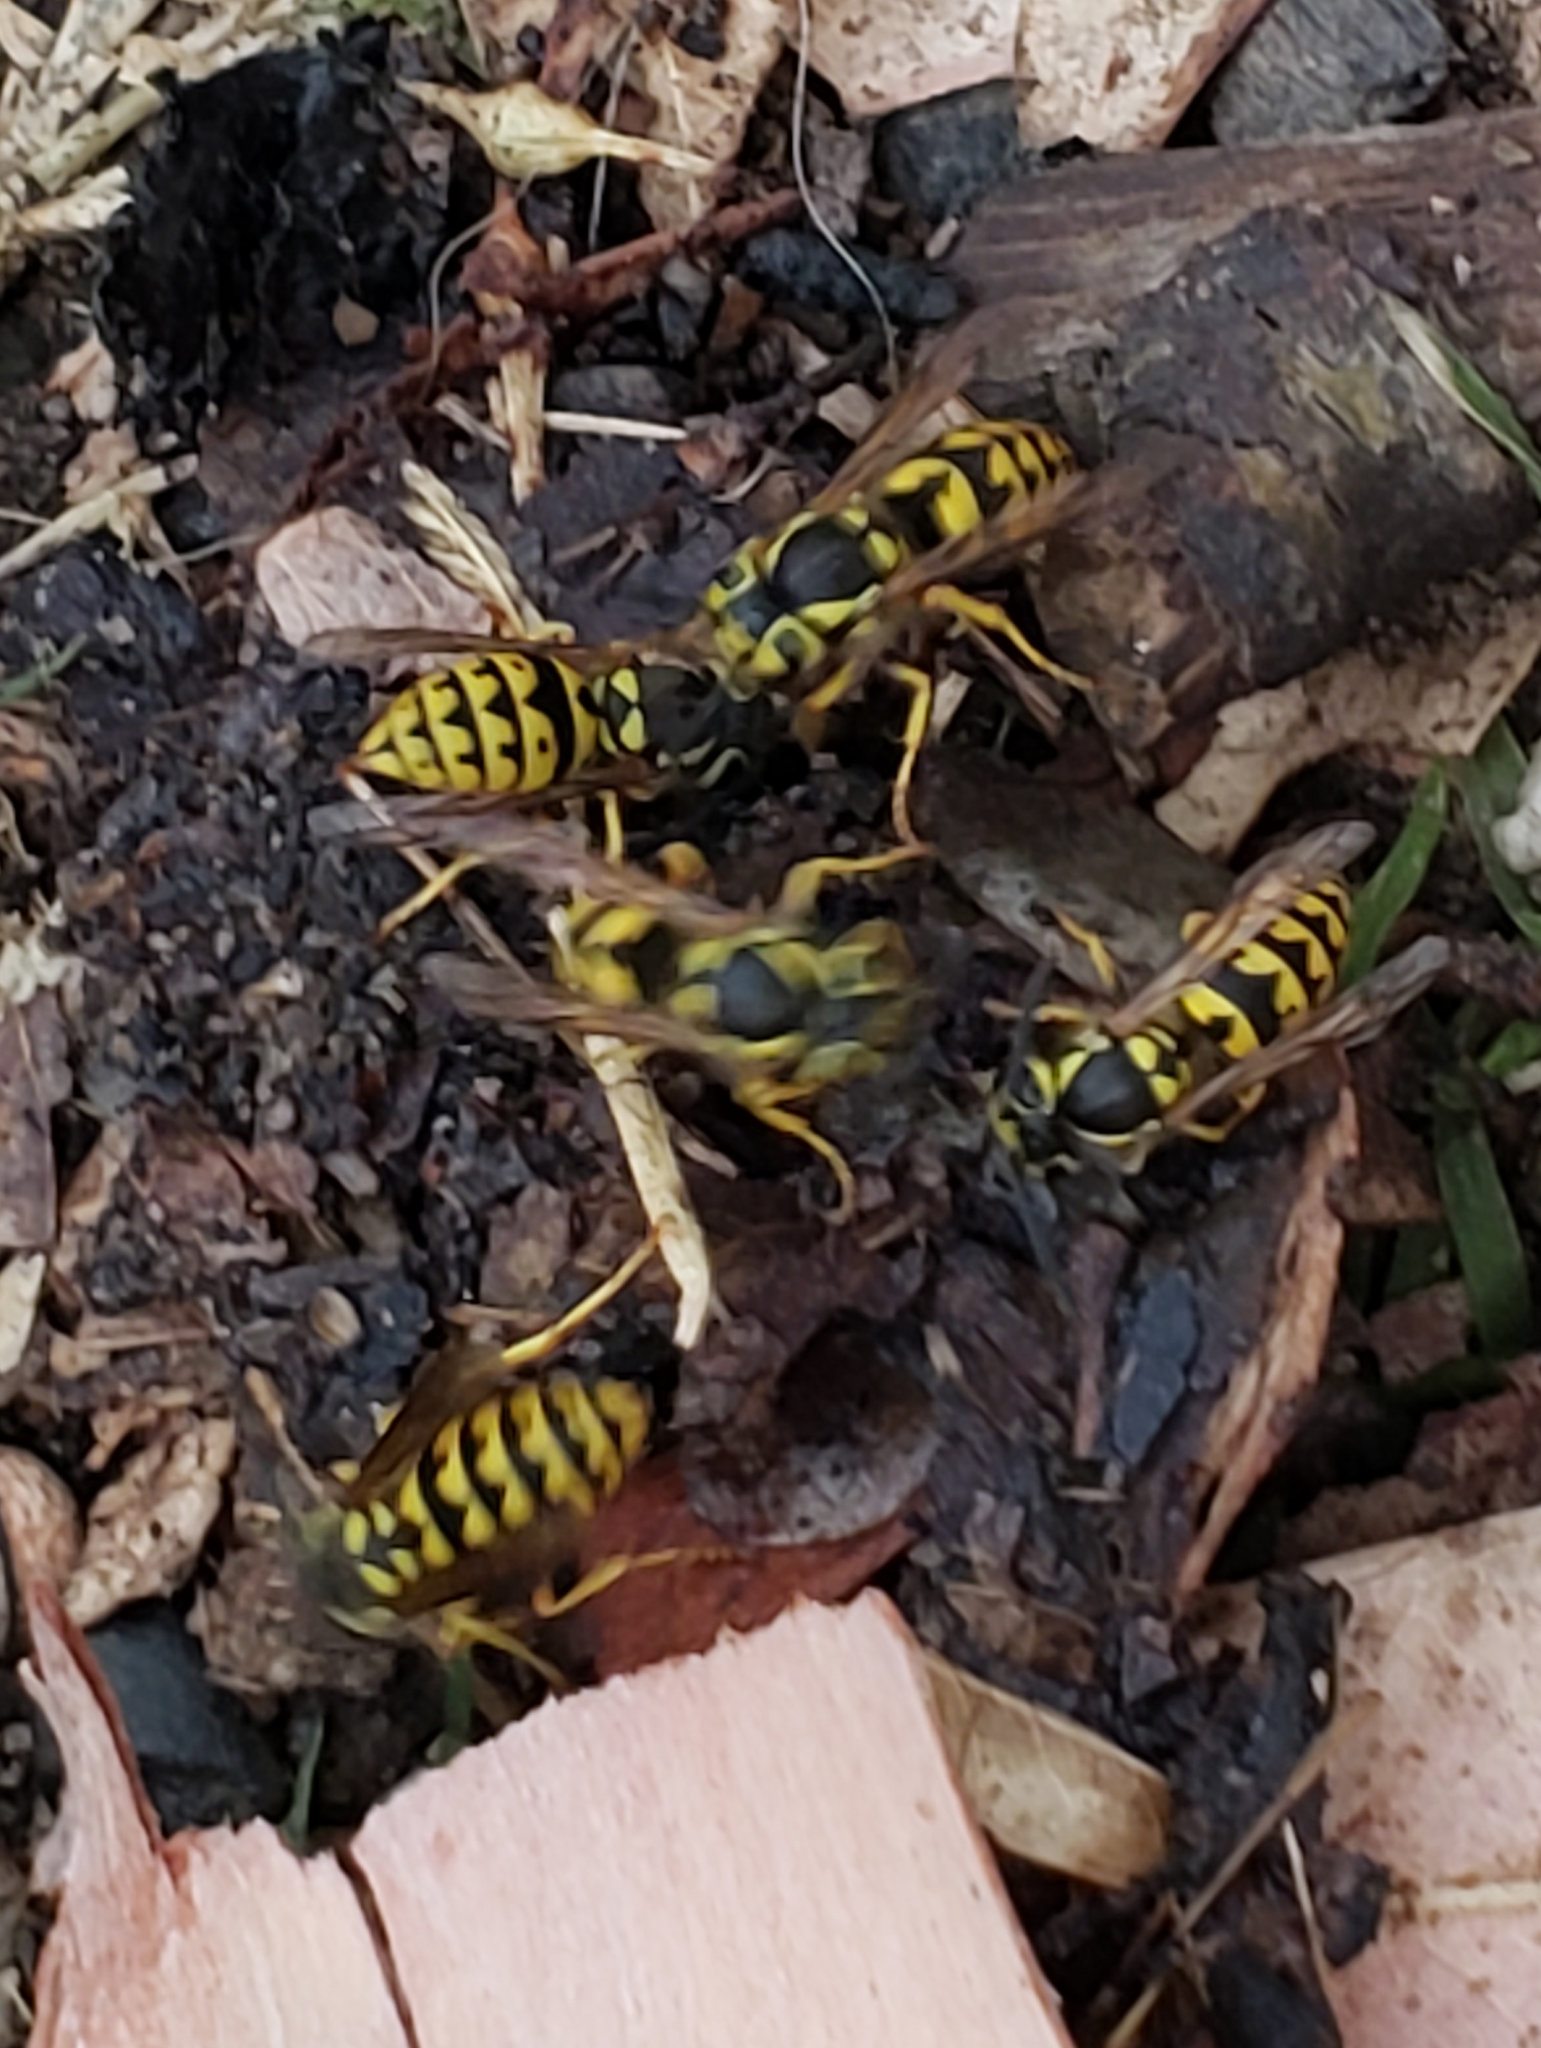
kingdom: Animalia
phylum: Arthropoda
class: Insecta
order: Hymenoptera
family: Vespidae
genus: Vespula
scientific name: Vespula pensylvanica
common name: Western yellowjacket
